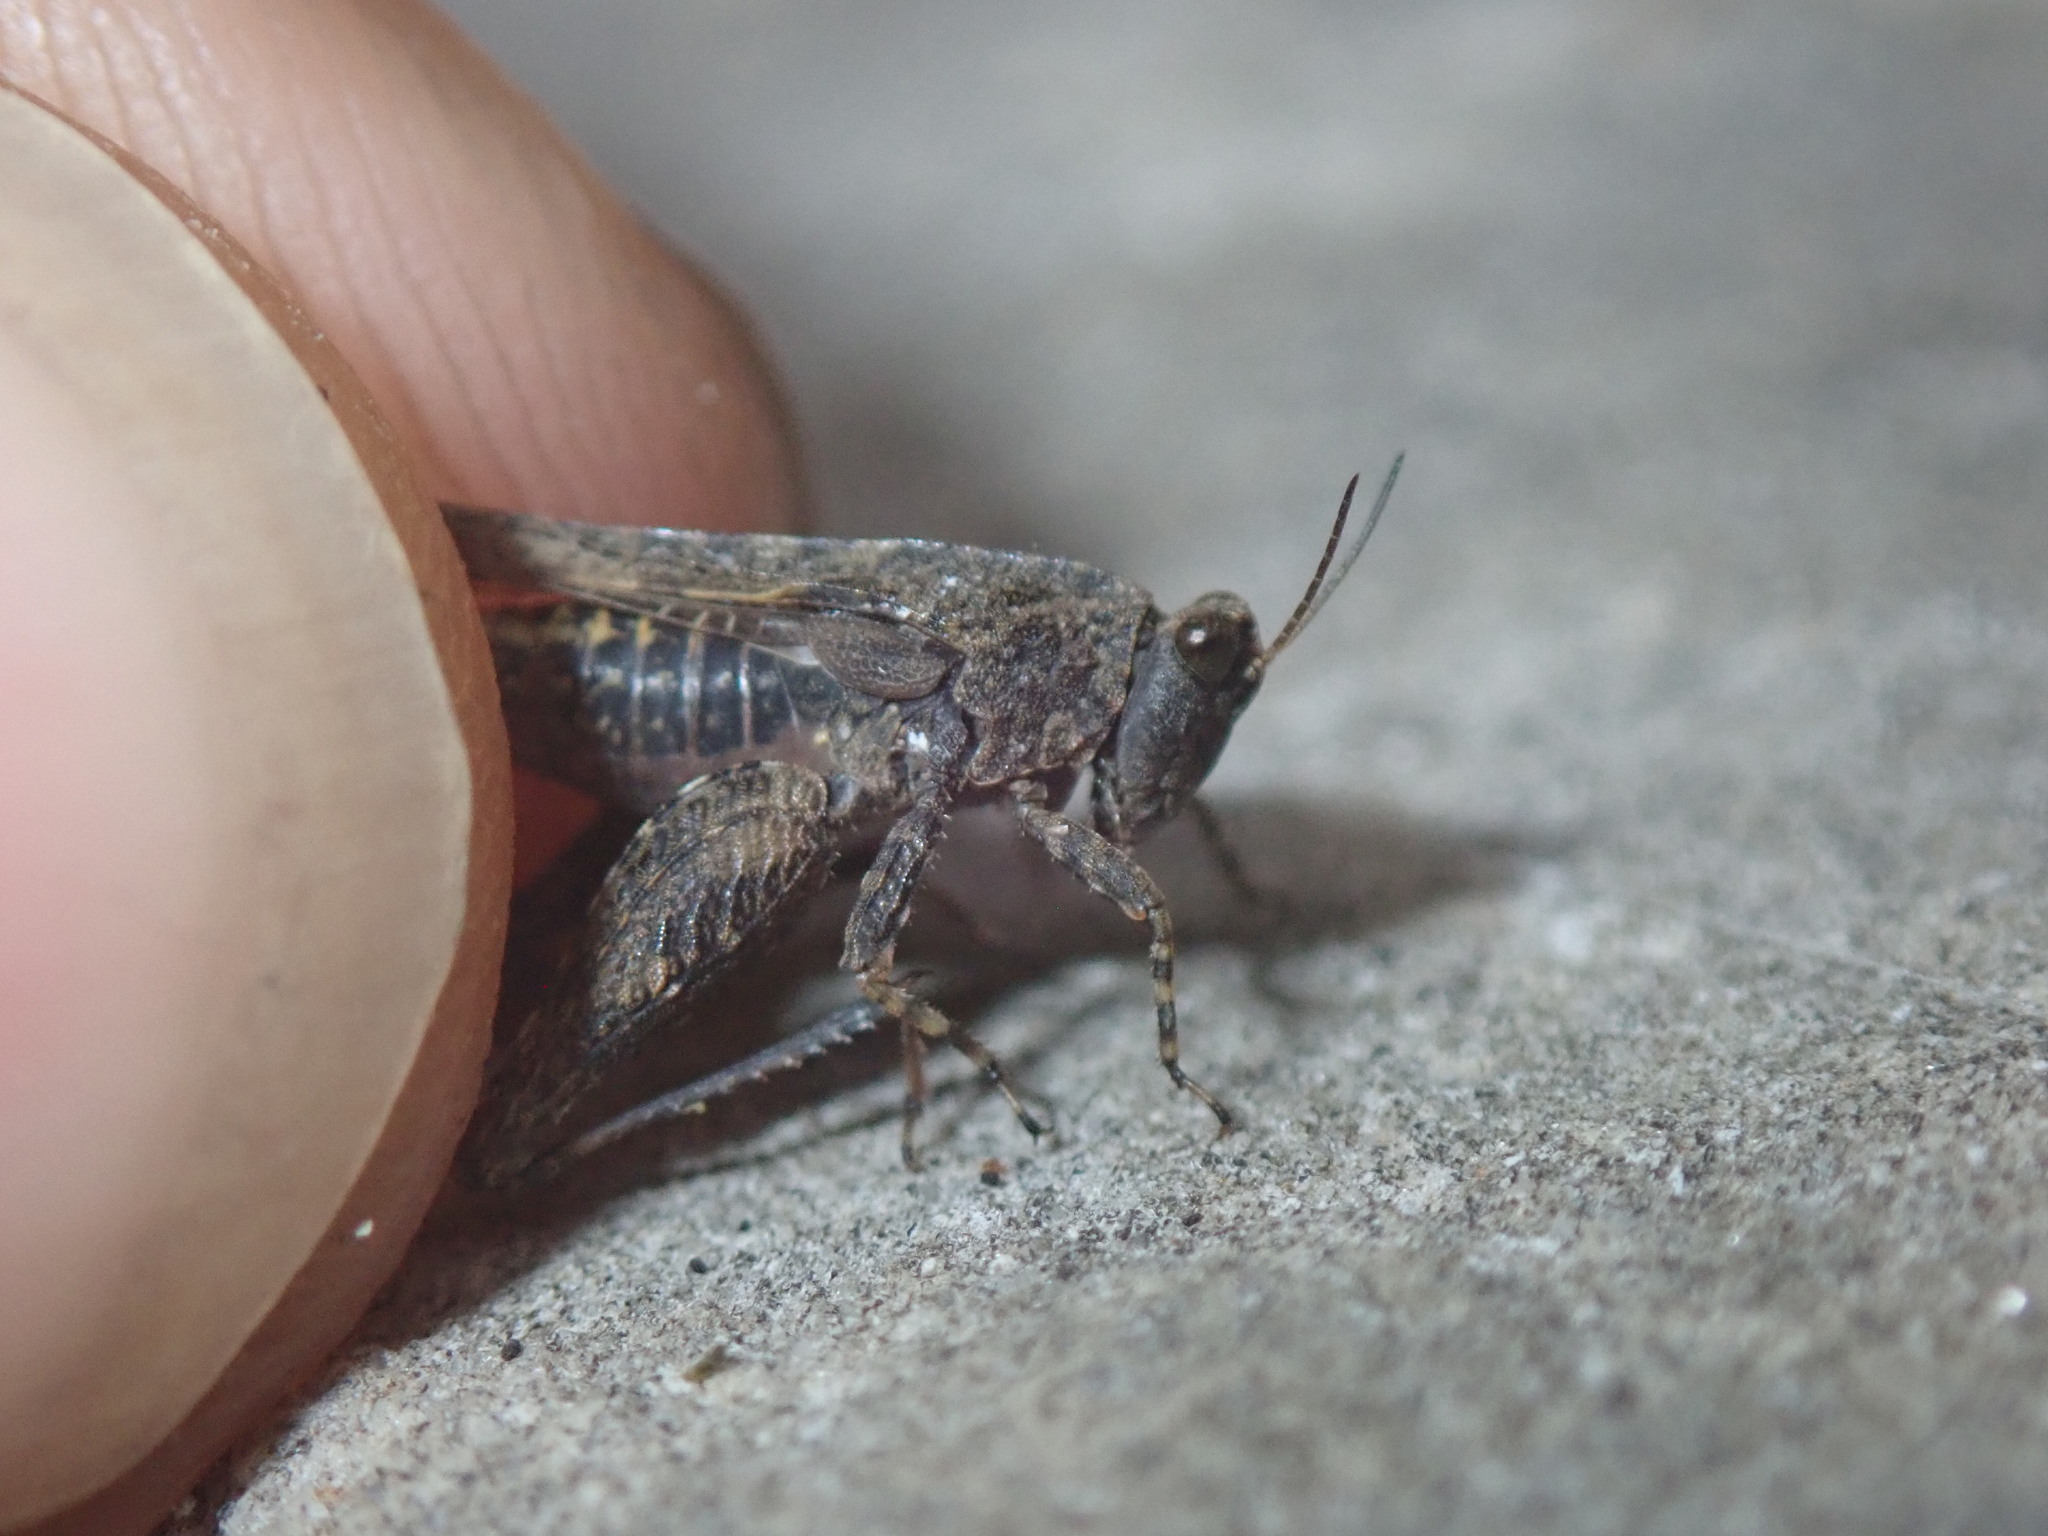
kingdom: Animalia
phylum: Arthropoda
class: Insecta
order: Orthoptera
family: Tetrigidae
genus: Tetrix
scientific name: Tetrix ceperoi
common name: Cepero's ground-hopper
